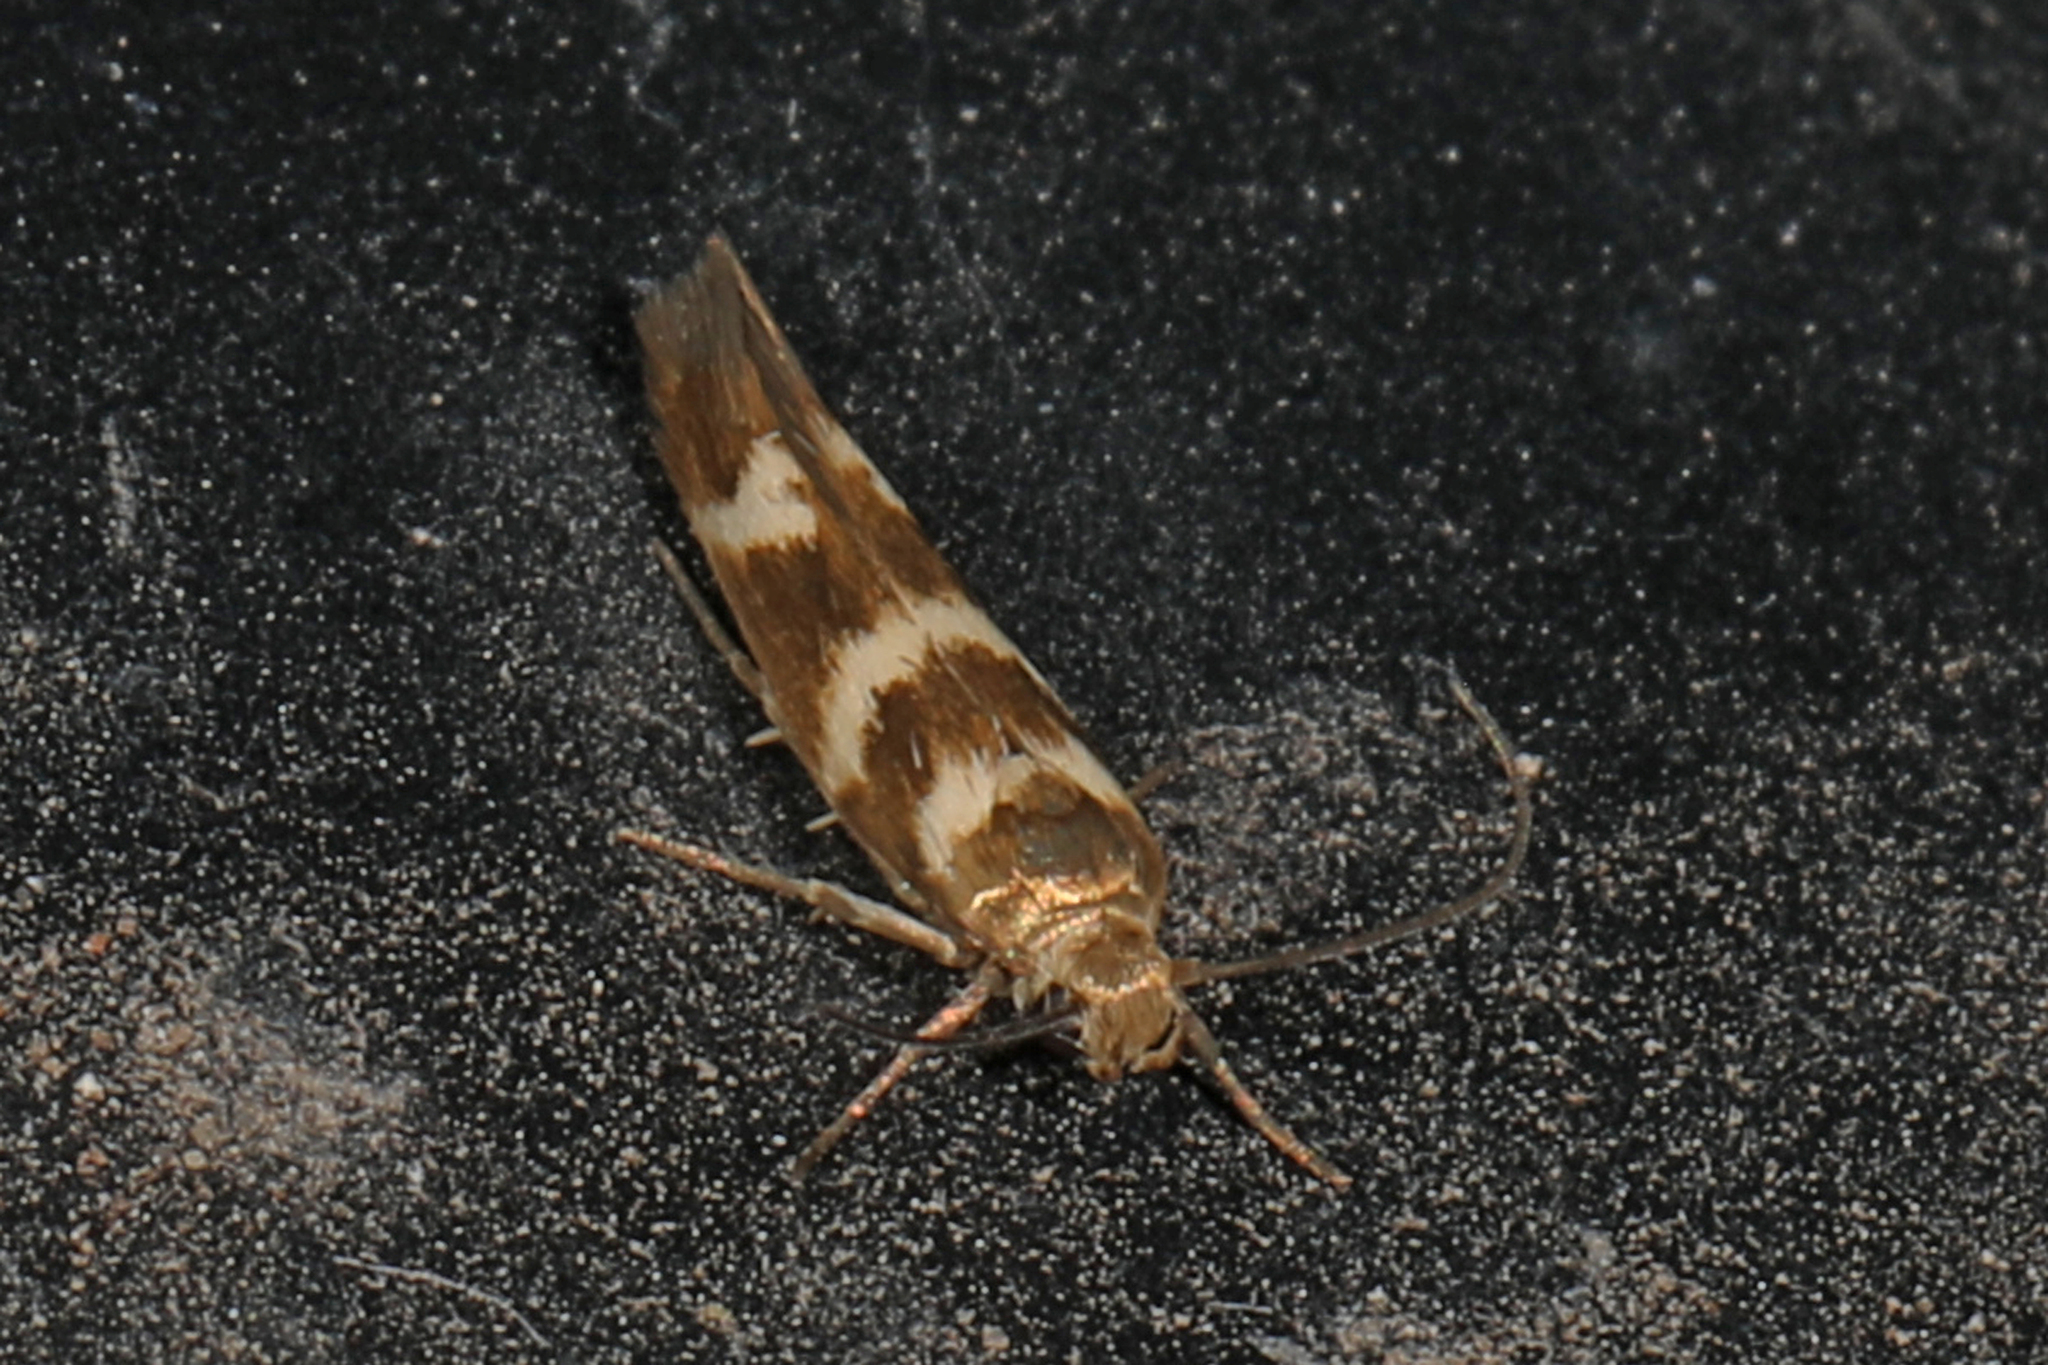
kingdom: Animalia
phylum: Arthropoda
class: Insecta
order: Lepidoptera
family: Scythrididae
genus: Scythris
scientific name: Scythris trivinctella
